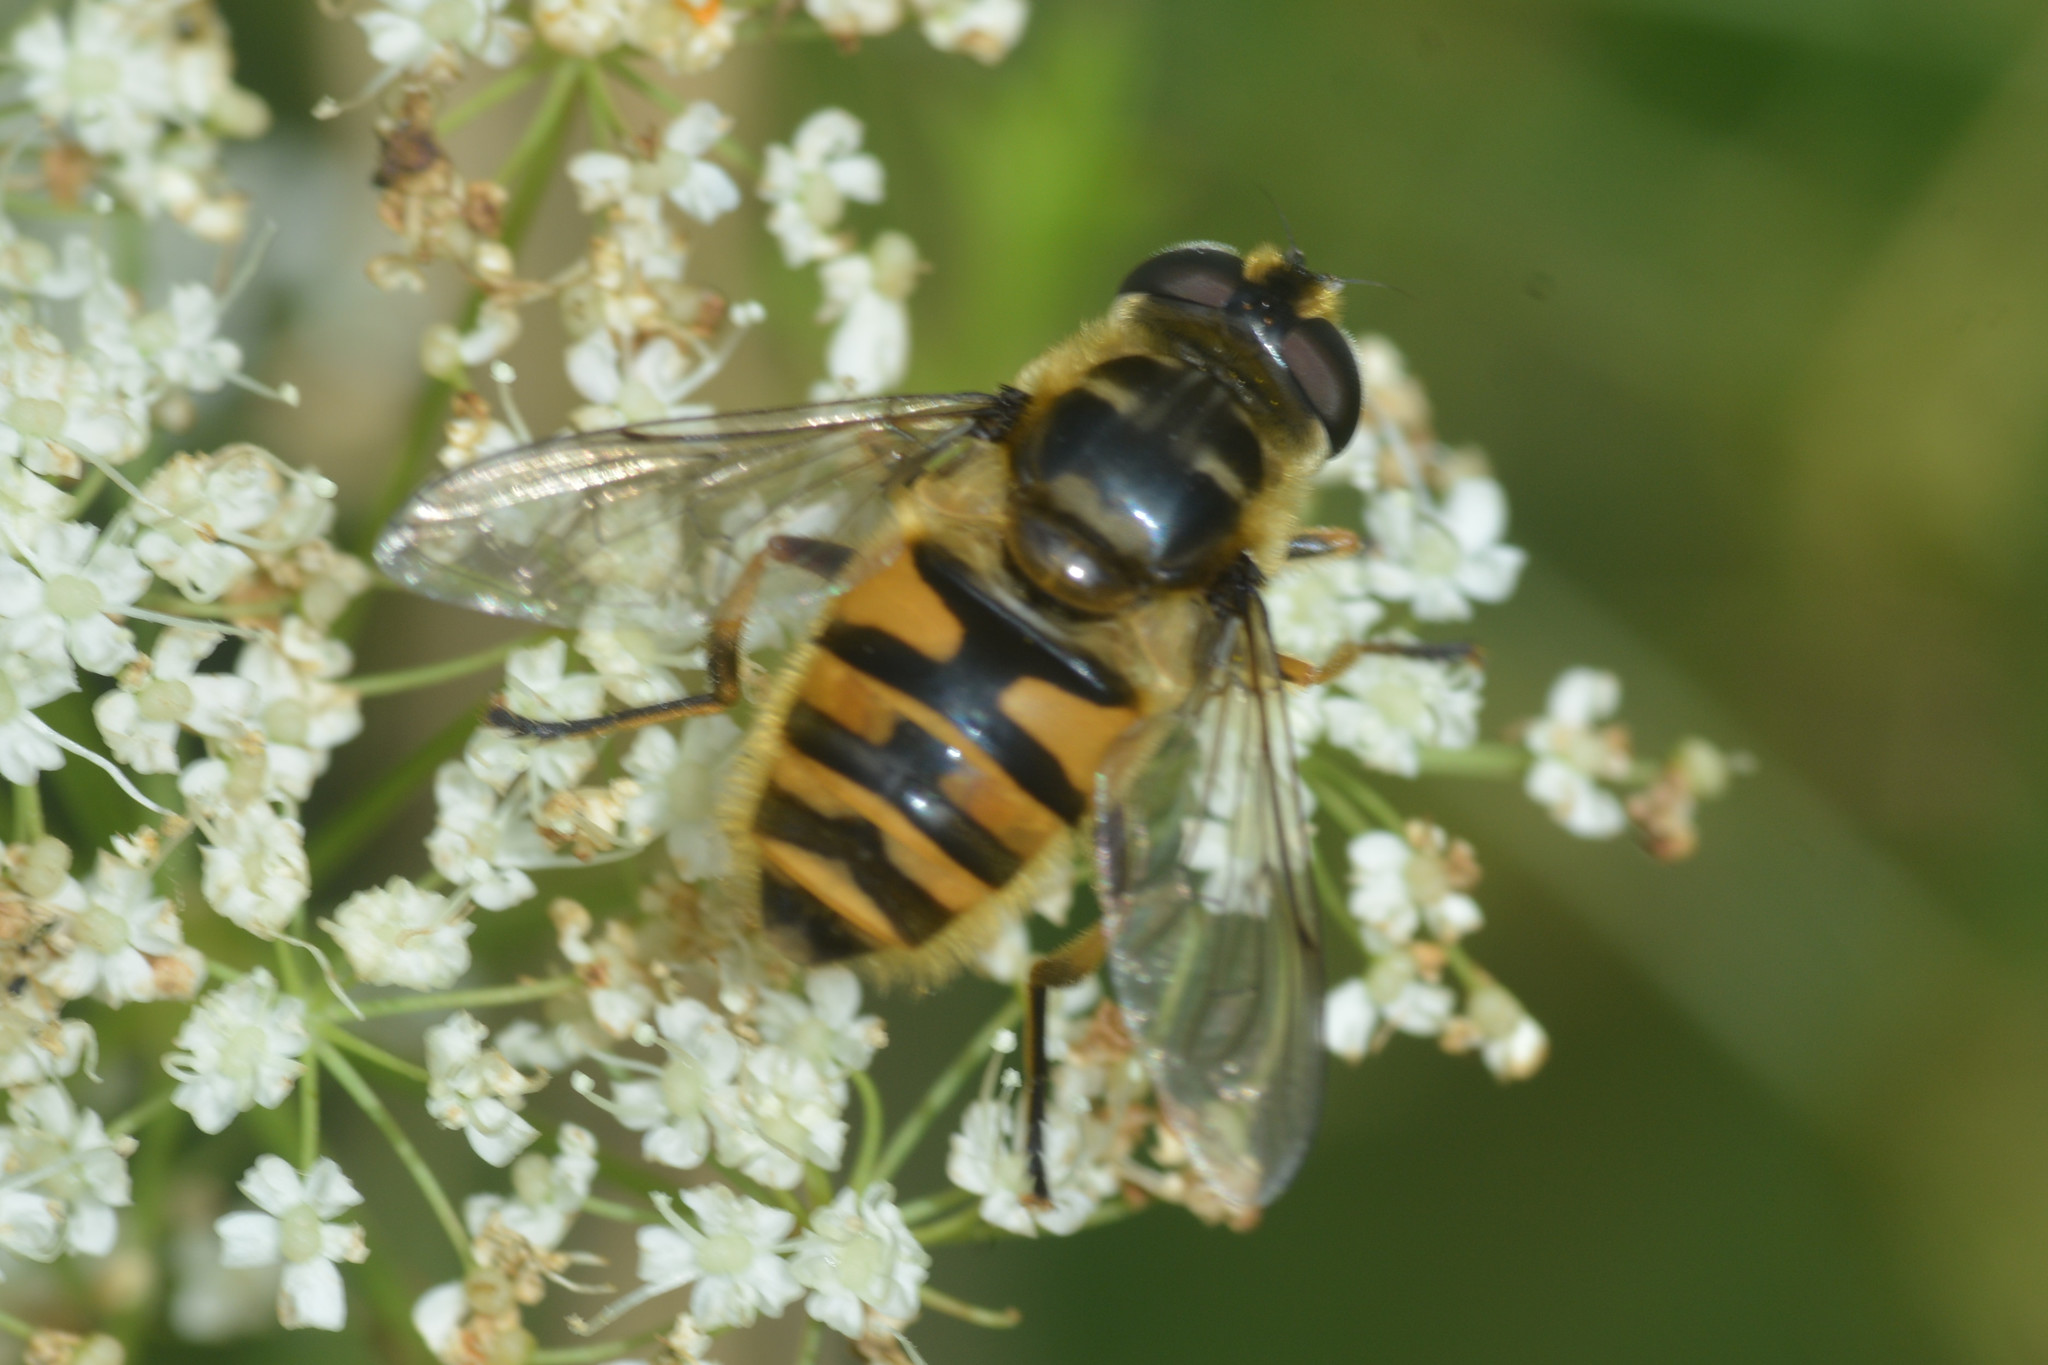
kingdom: Animalia
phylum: Arthropoda
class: Insecta
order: Diptera
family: Syrphidae
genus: Myathropa
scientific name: Myathropa florea
